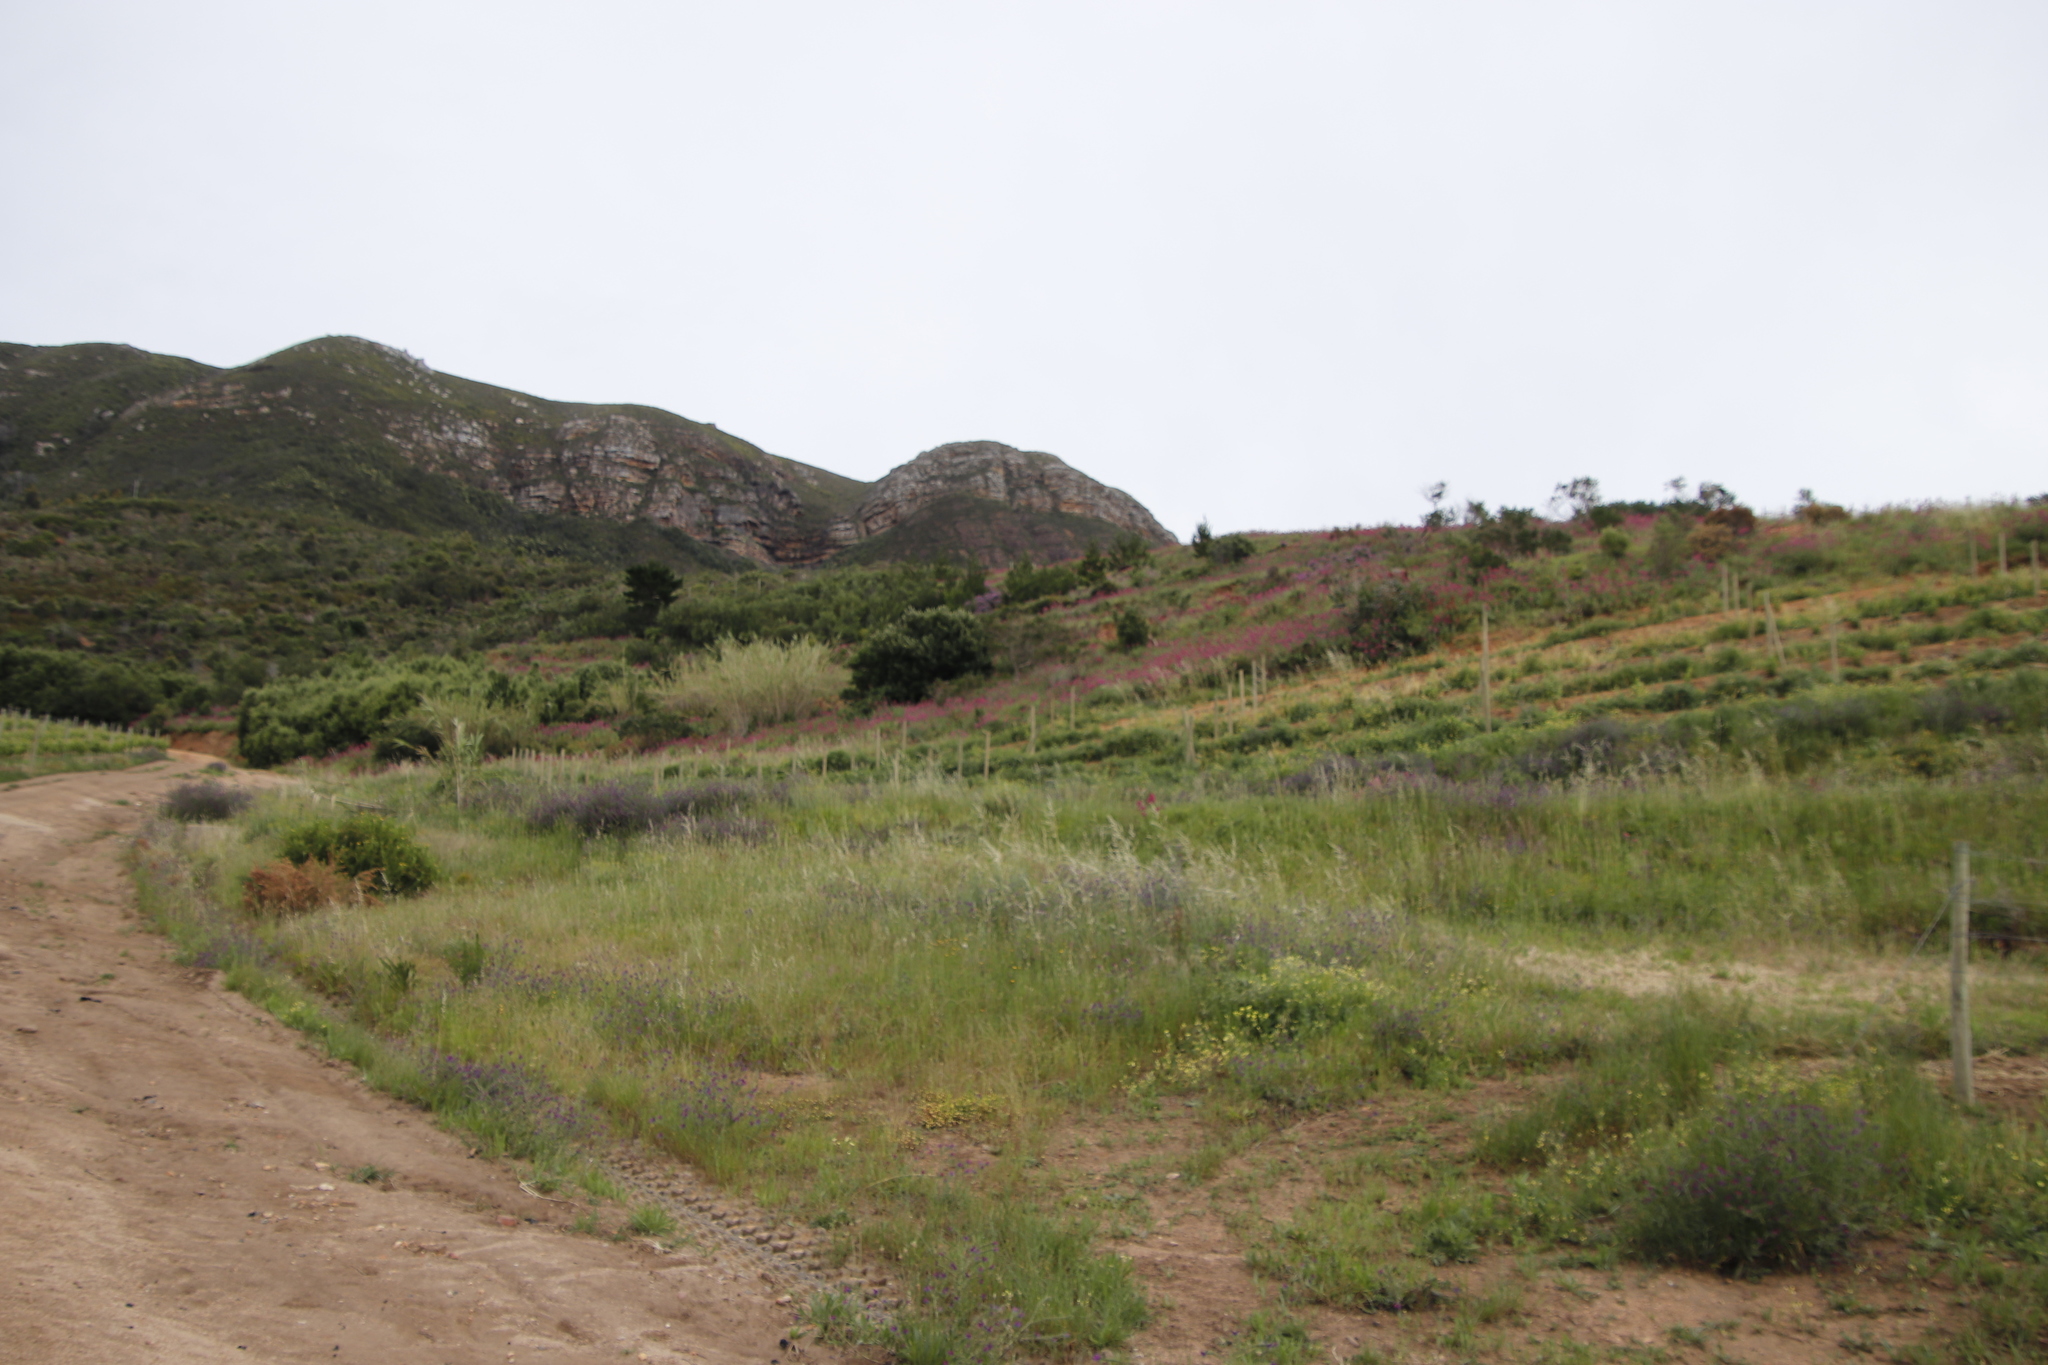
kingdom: Plantae
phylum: Tracheophyta
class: Magnoliopsida
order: Boraginales
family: Boraginaceae
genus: Echium
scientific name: Echium plantagineum
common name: Purple viper's-bugloss
